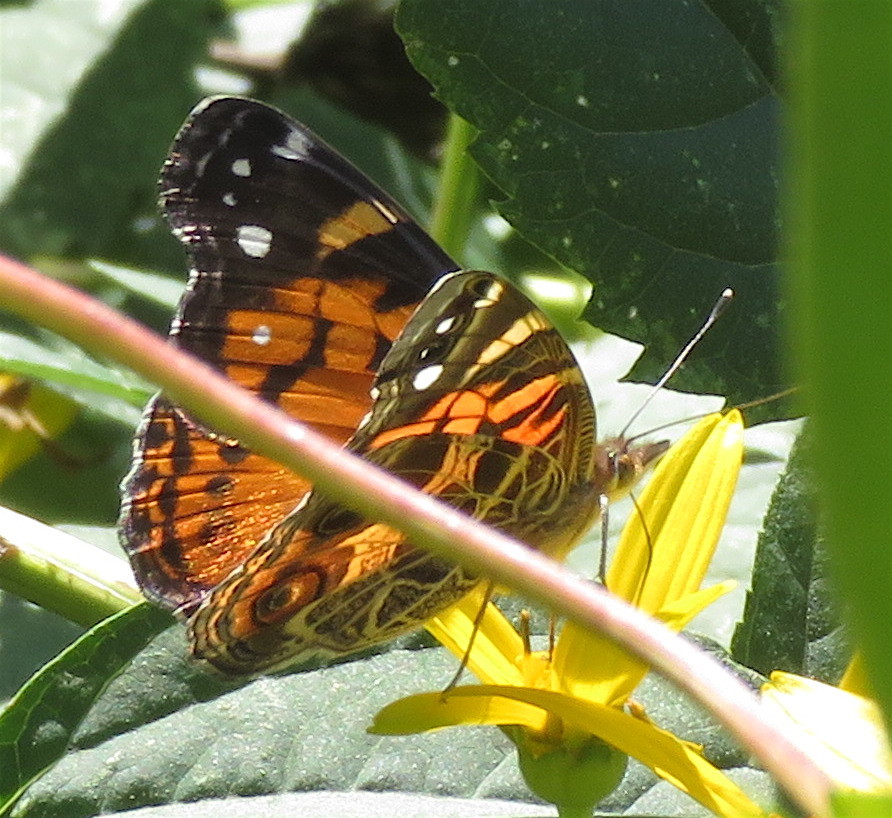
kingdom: Animalia
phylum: Arthropoda
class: Insecta
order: Lepidoptera
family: Nymphalidae
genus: Vanessa
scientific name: Vanessa virginiensis
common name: American lady
